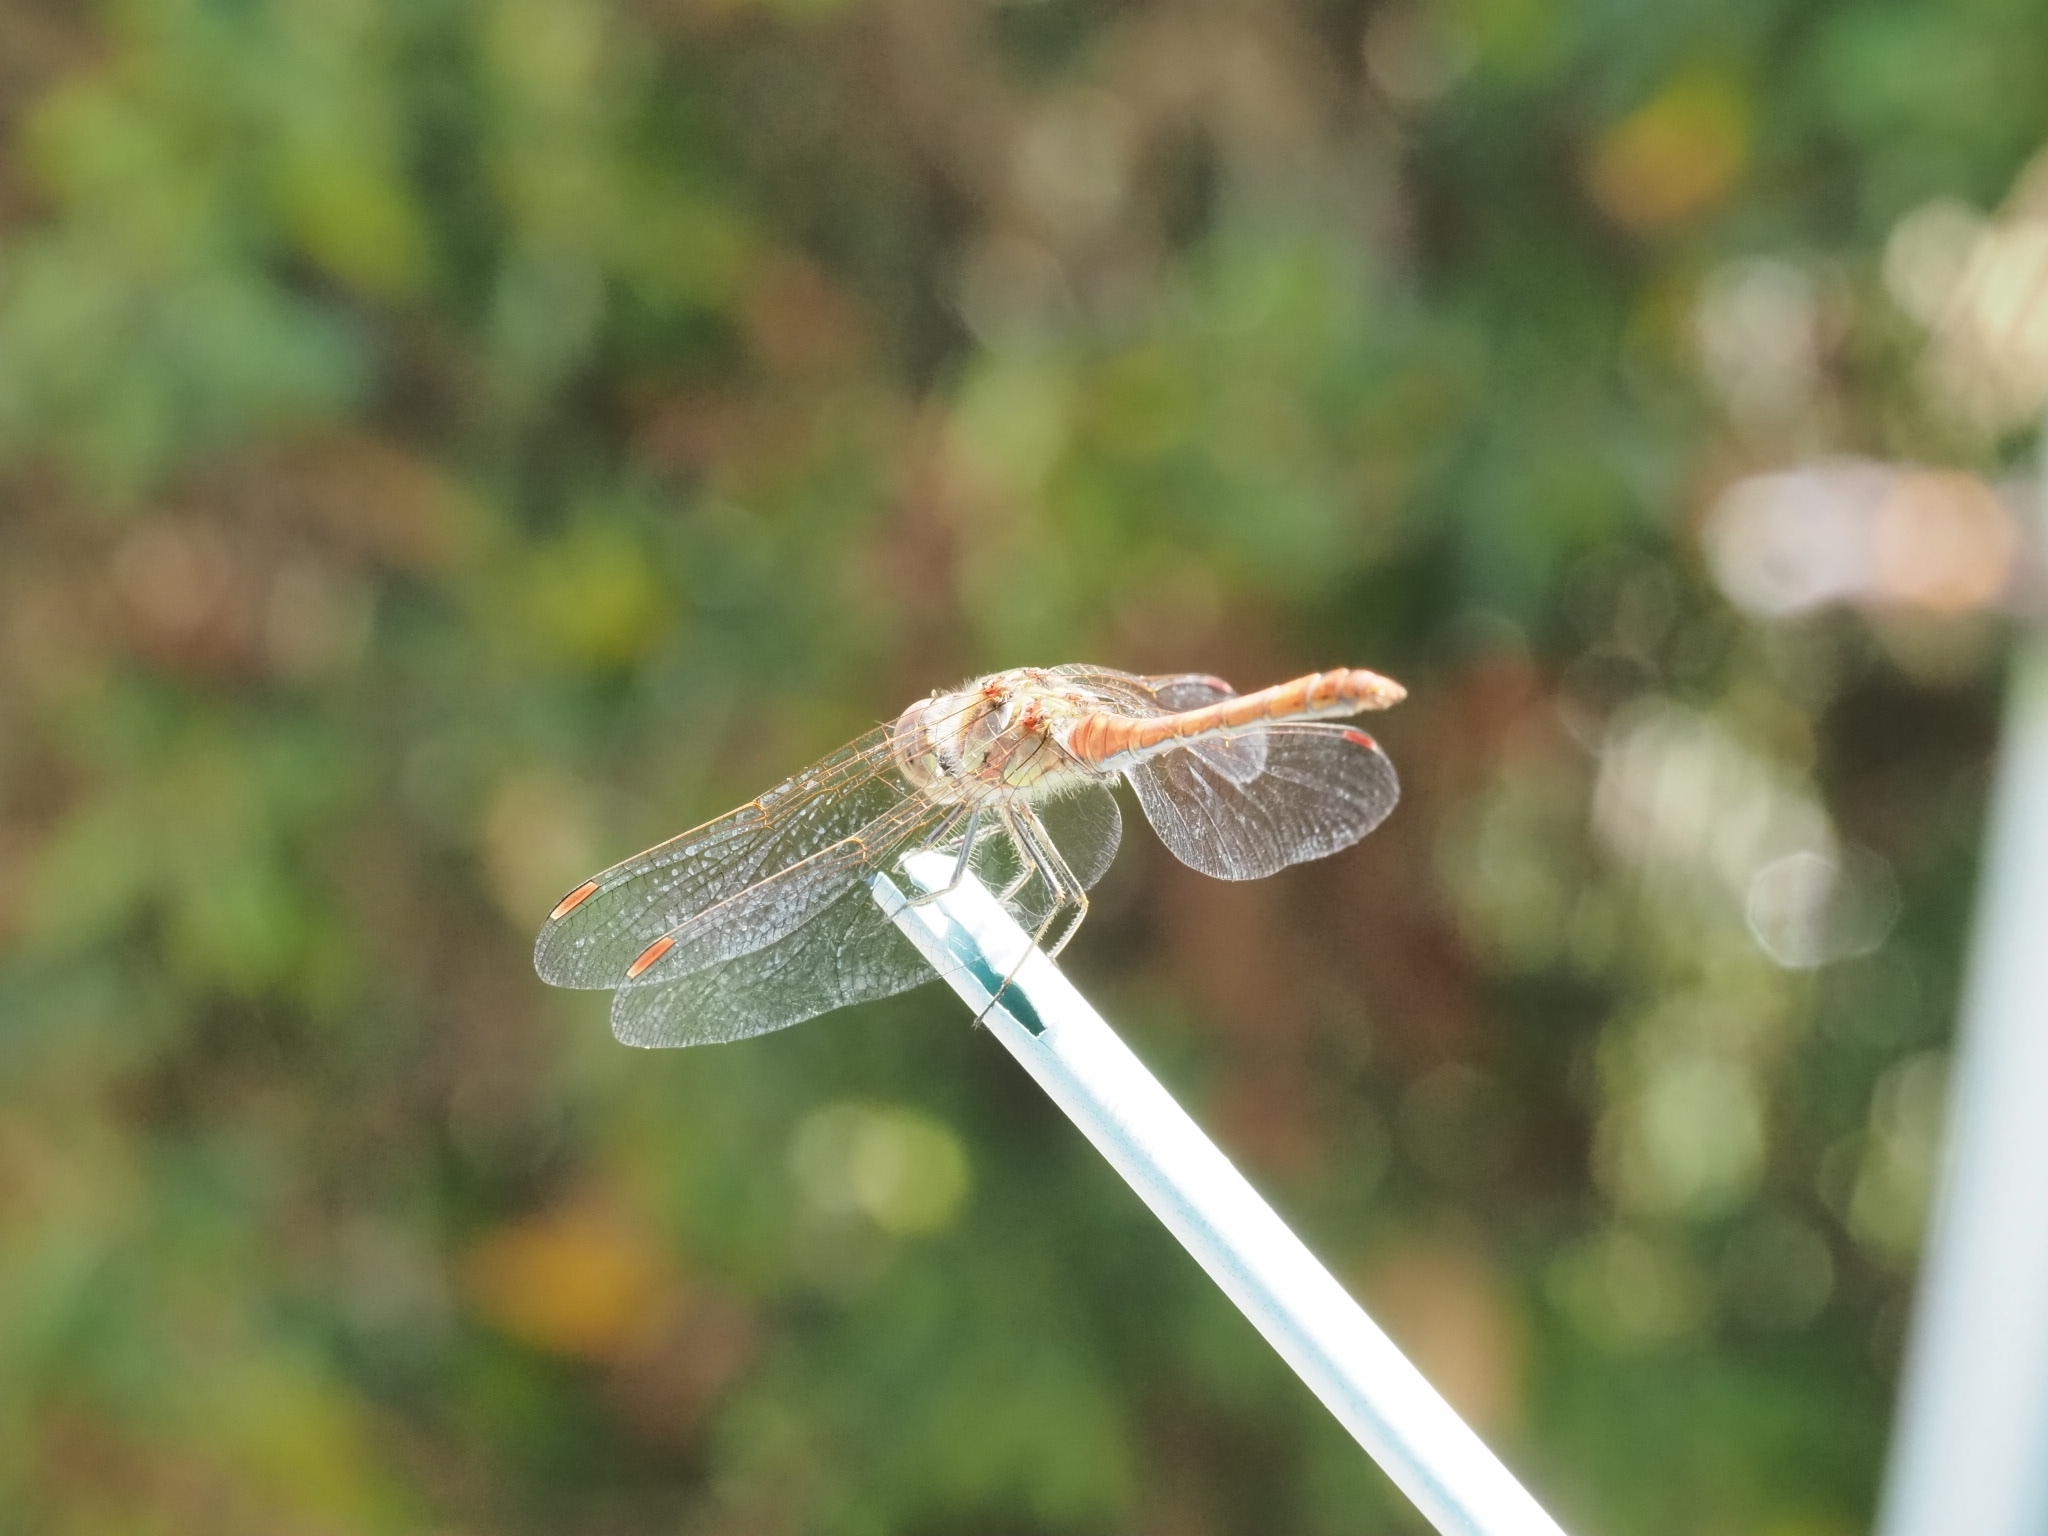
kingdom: Animalia
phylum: Arthropoda
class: Insecta
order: Odonata
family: Libellulidae
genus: Sympetrum
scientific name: Sympetrum striolatum
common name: Common darter
